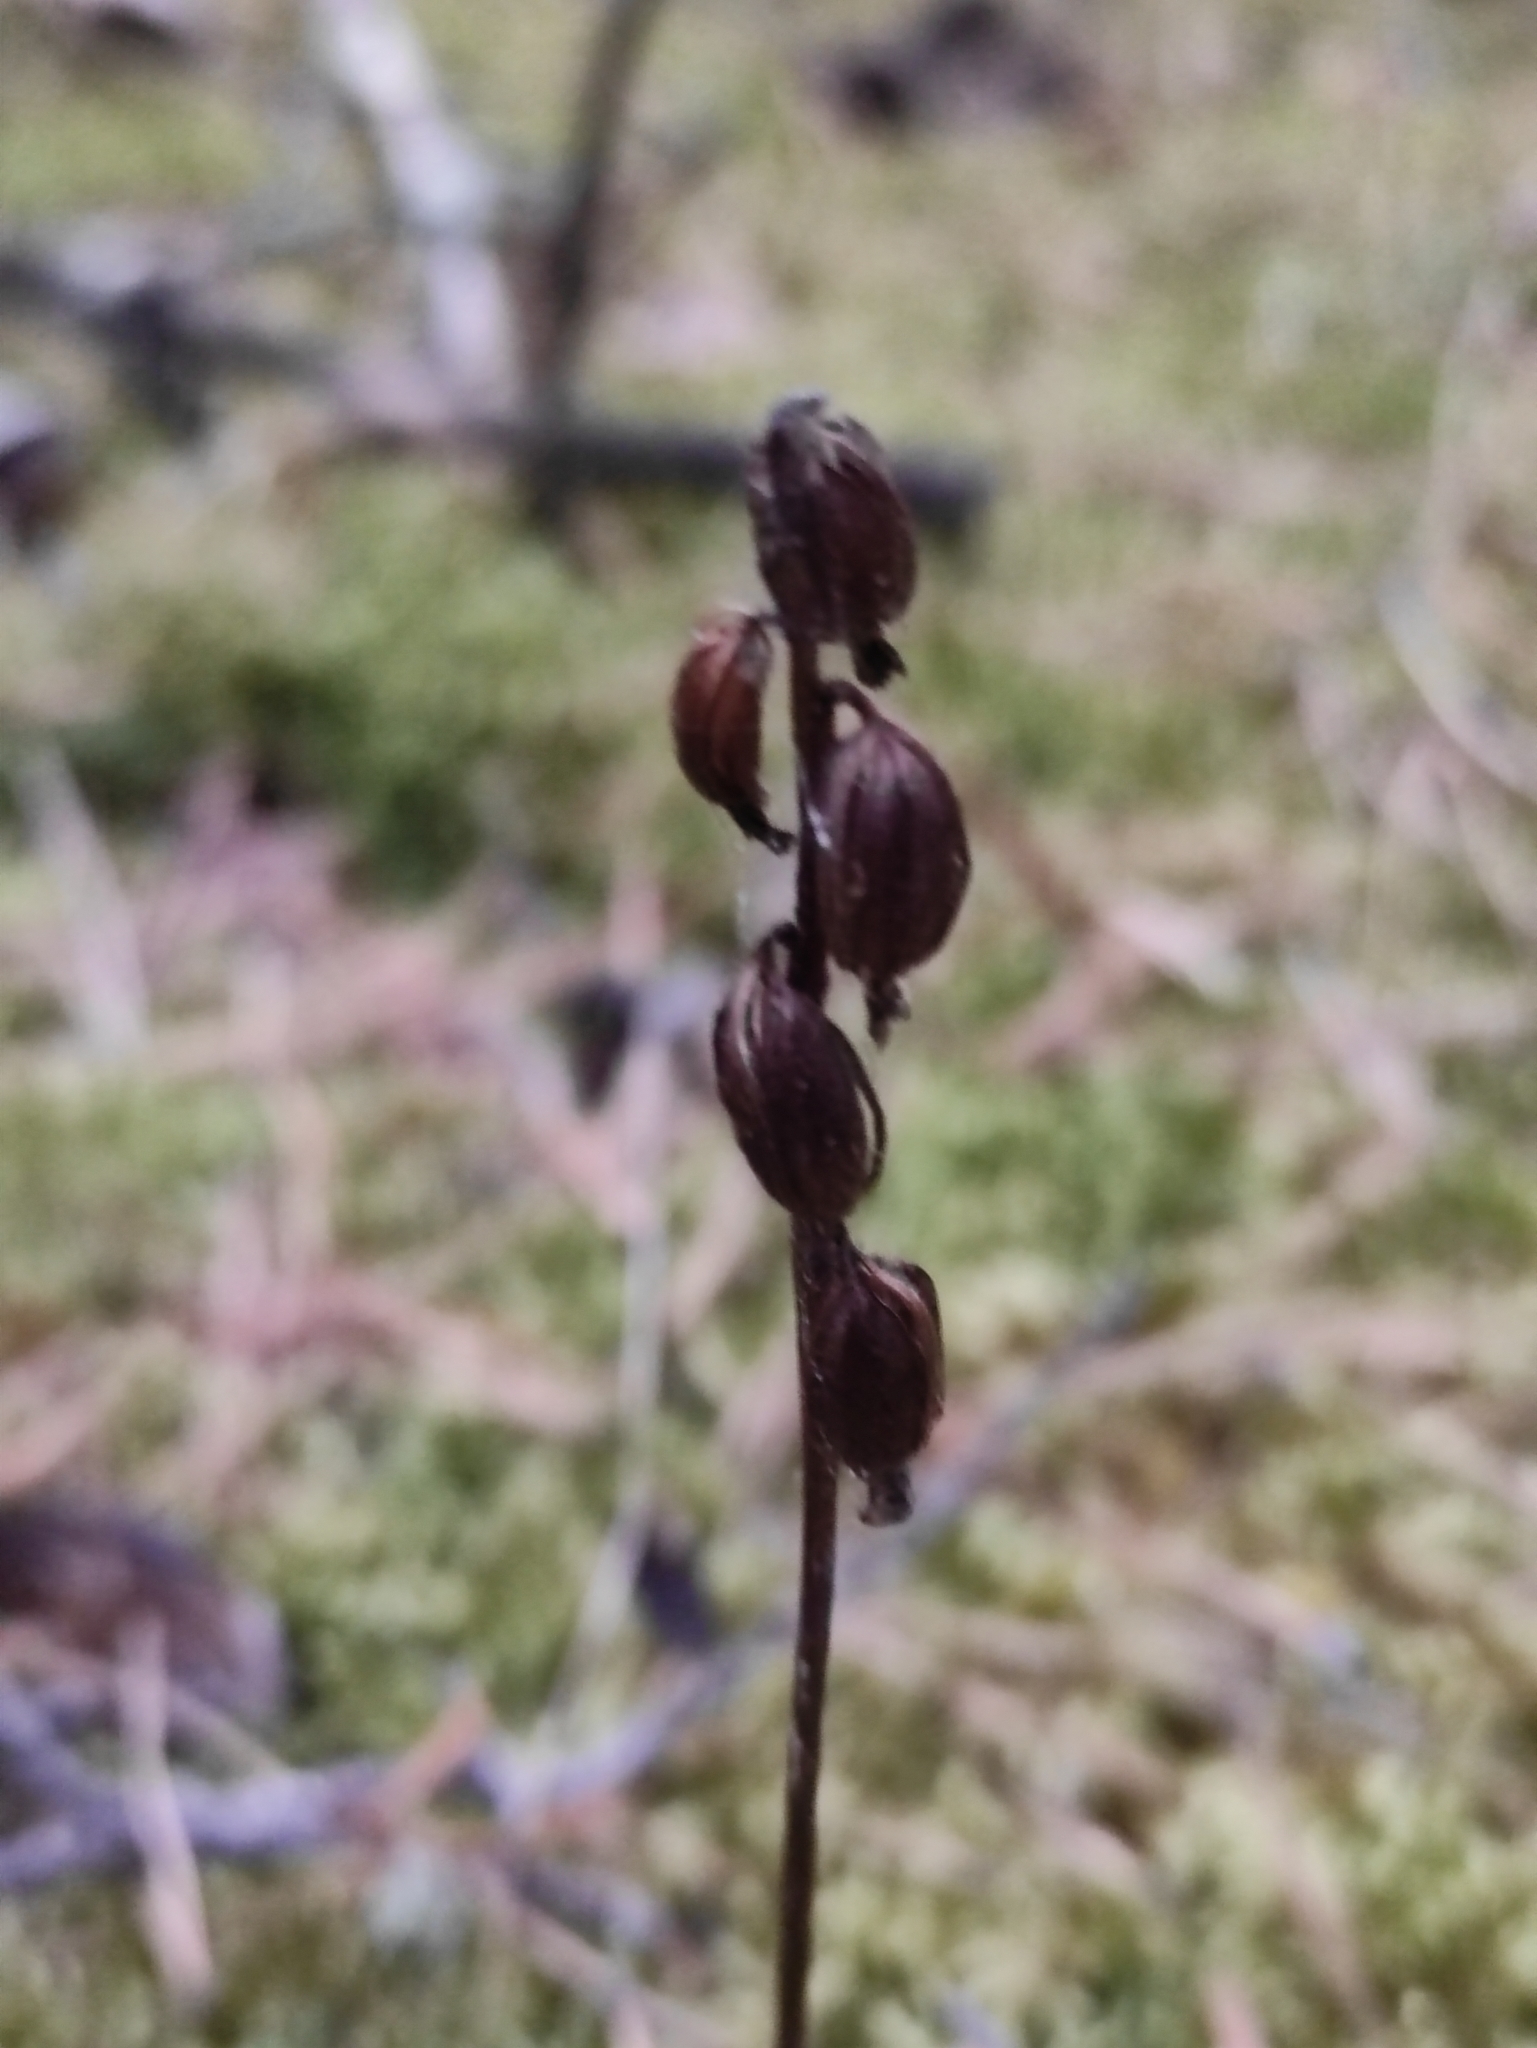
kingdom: Plantae
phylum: Tracheophyta
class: Liliopsida
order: Asparagales
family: Orchidaceae
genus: Corallorhiza
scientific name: Corallorhiza trifida
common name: Yellow coralroot
